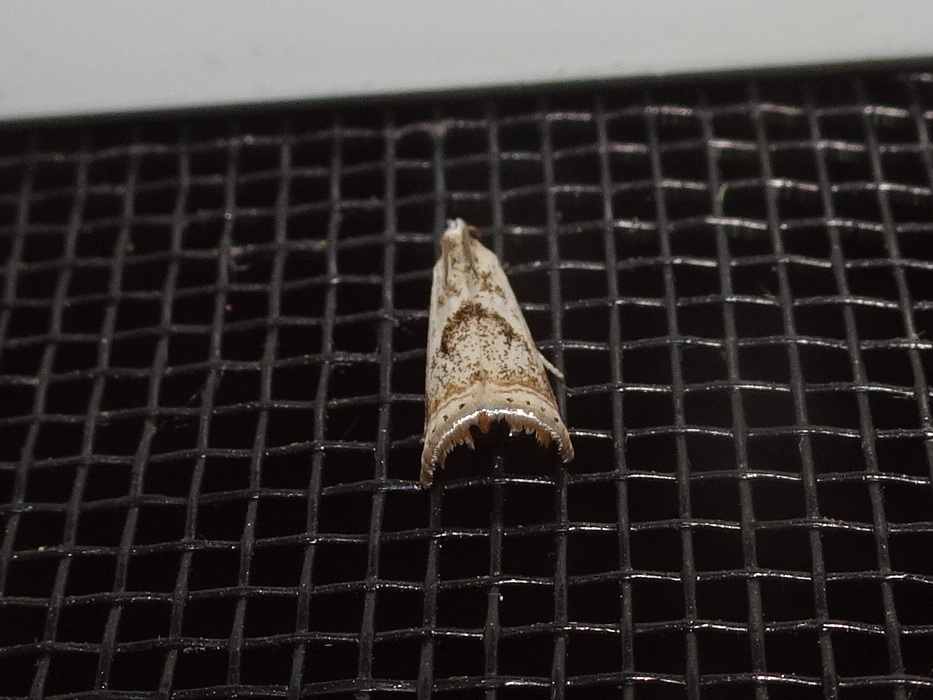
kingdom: Animalia
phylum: Arthropoda
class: Insecta
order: Lepidoptera
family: Crambidae
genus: Microcrambus
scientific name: Microcrambus elegans
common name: Elegant grass-veneer
